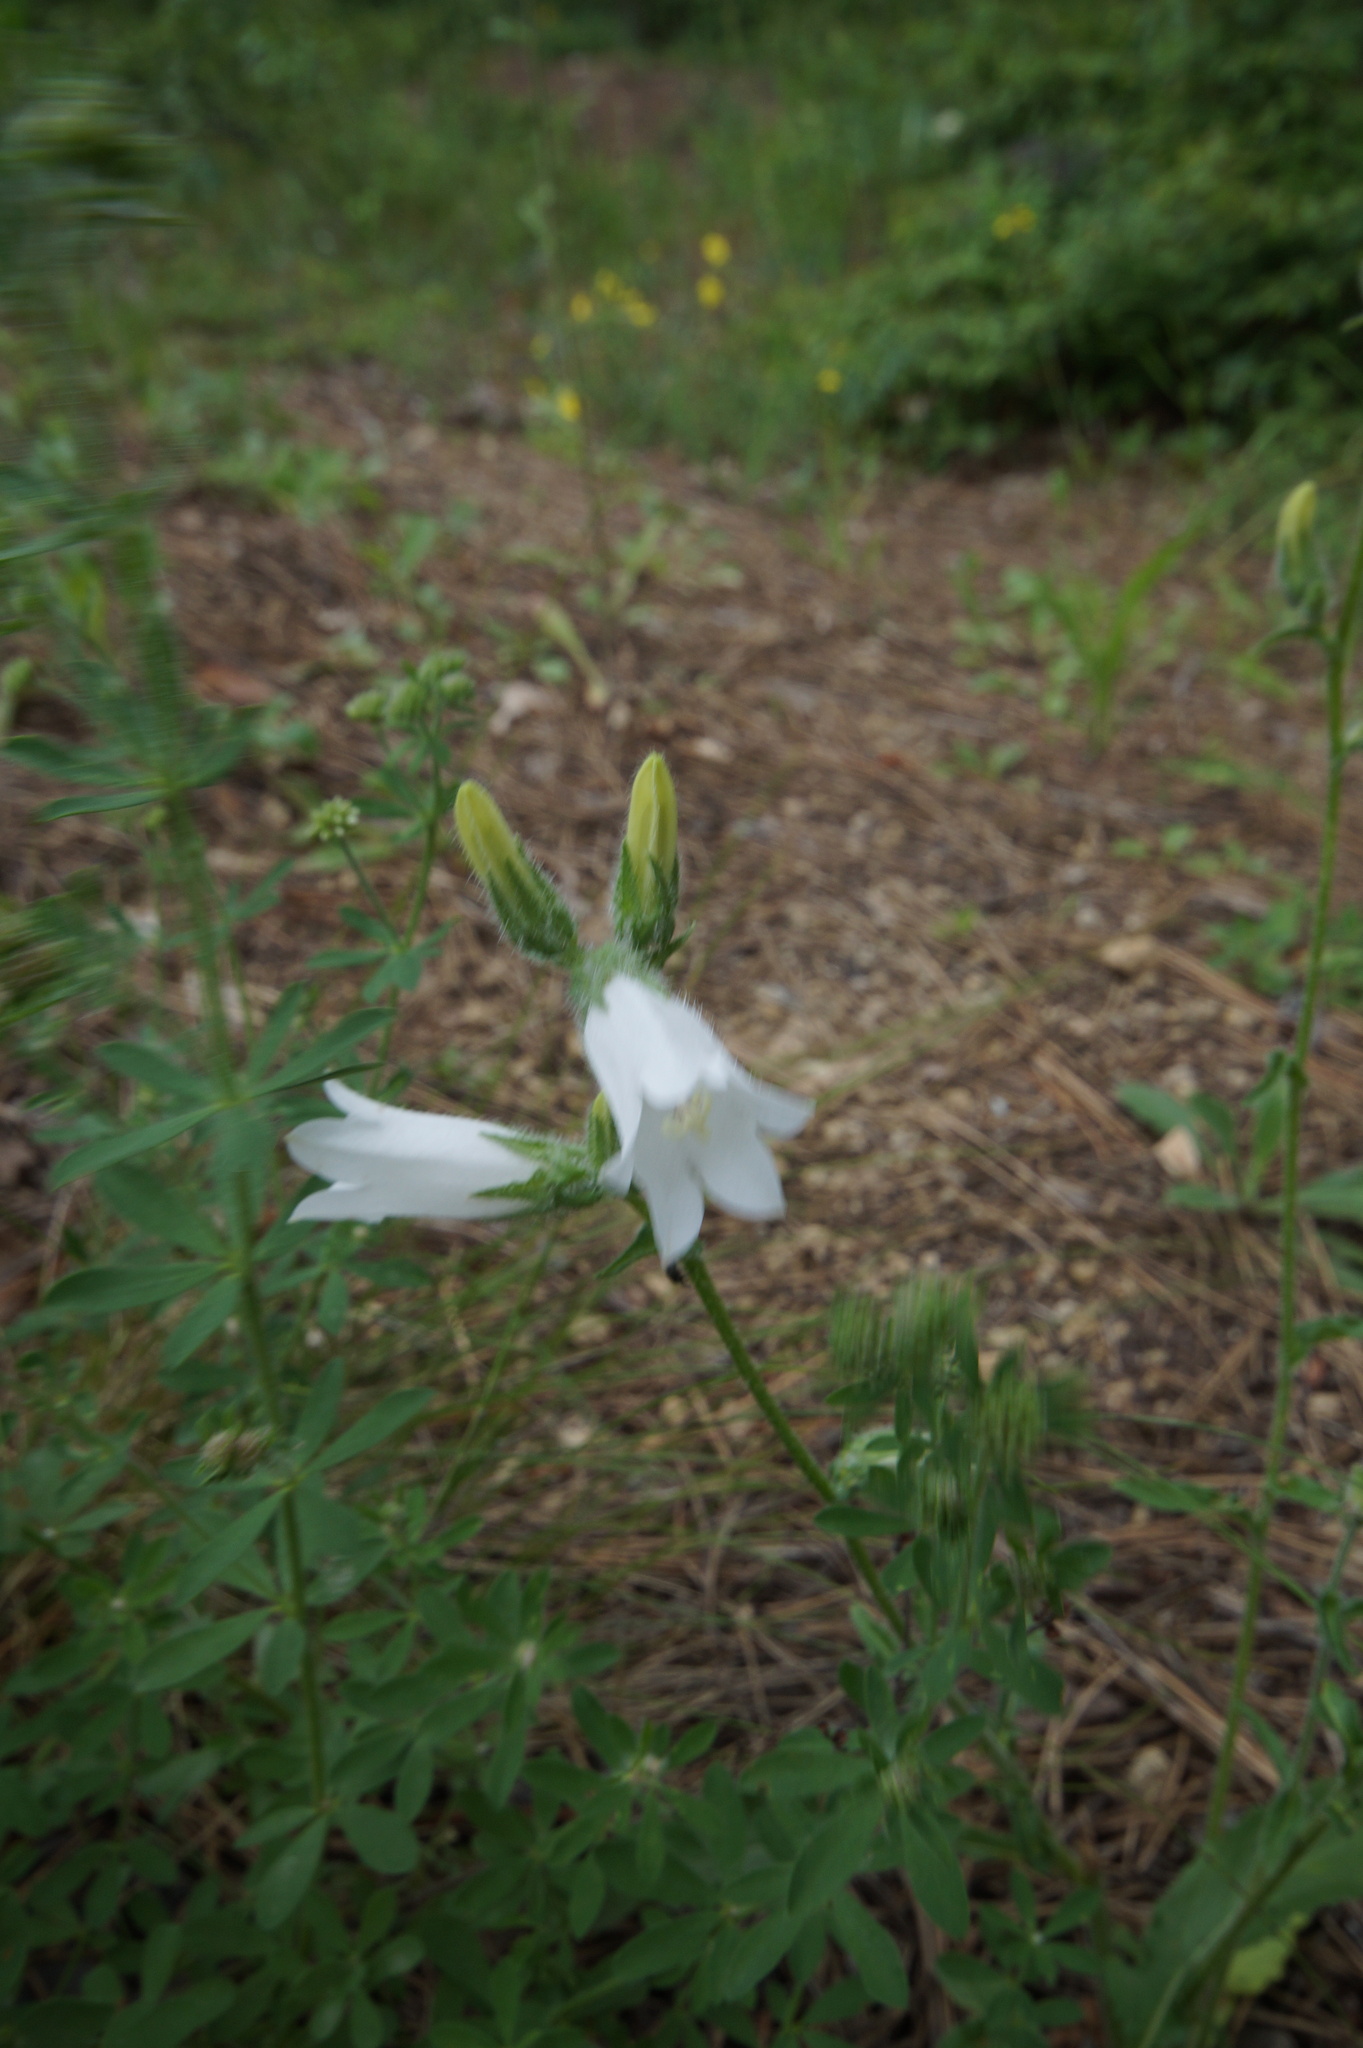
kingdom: Plantae
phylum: Tracheophyta
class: Magnoliopsida
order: Asterales
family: Campanulaceae
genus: Campanula
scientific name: Campanula sibirica
